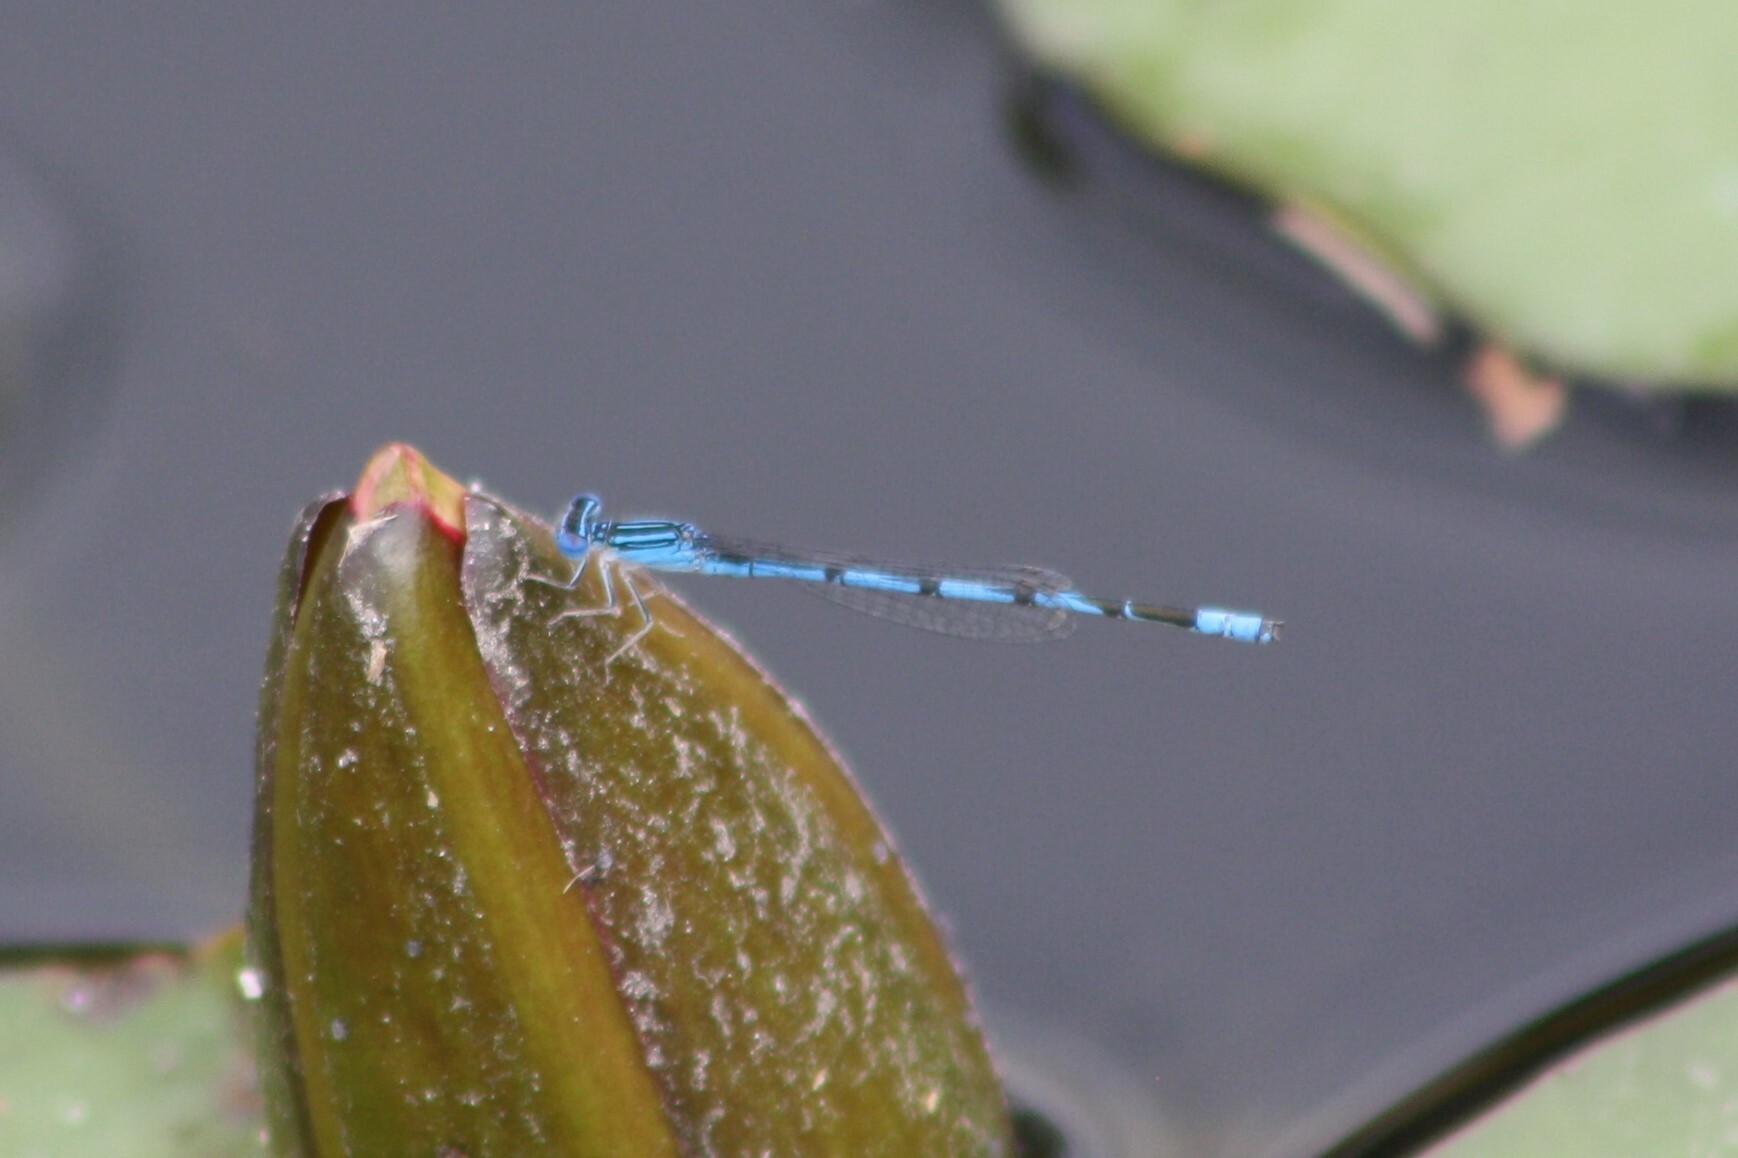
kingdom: Animalia
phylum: Arthropoda
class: Insecta
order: Odonata
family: Coenagrionidae
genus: Enallagma
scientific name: Enallagma basidens
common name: Double-striped bluet
